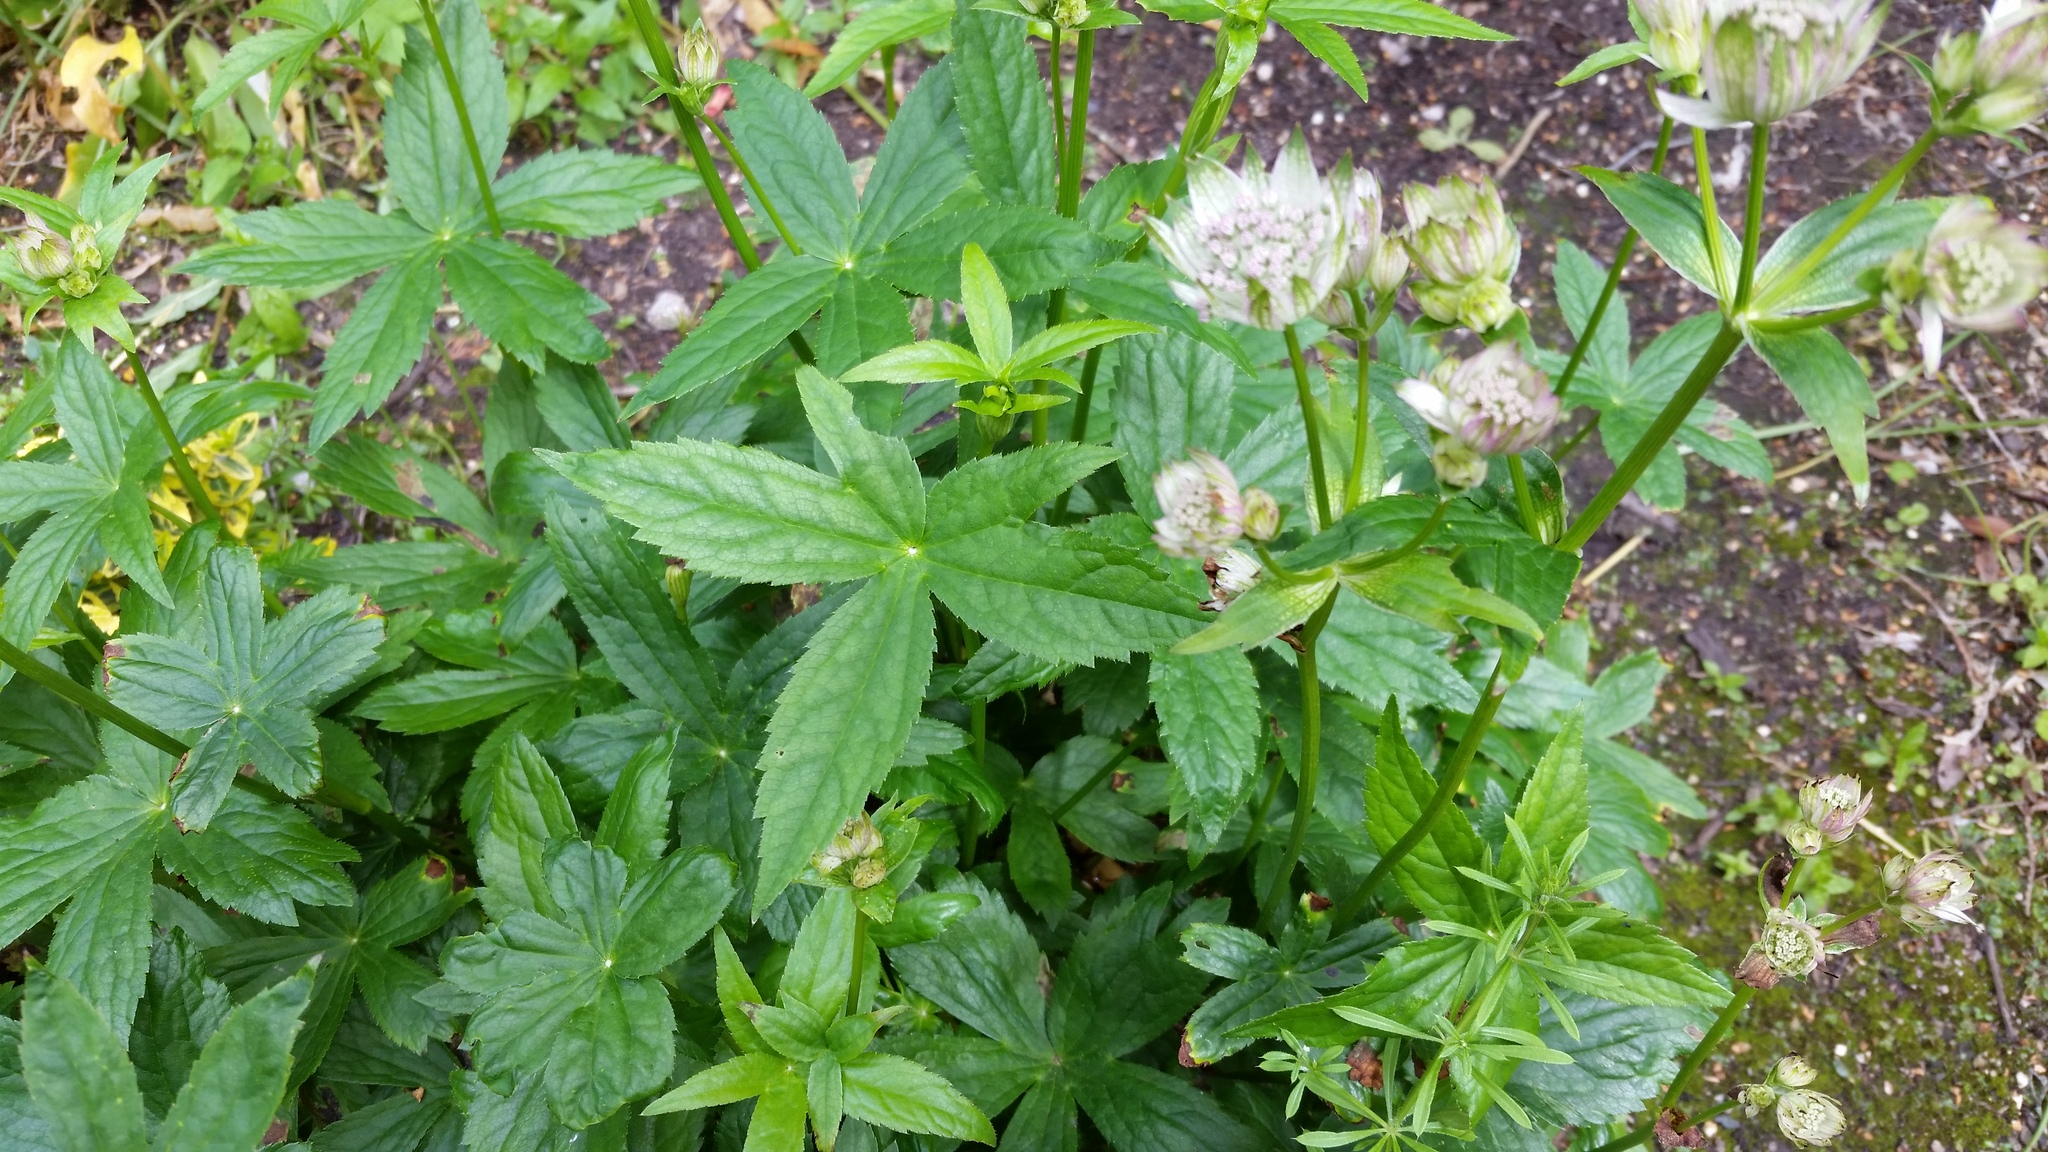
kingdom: Plantae
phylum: Tracheophyta
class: Magnoliopsida
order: Apiales
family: Apiaceae
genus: Astrantia
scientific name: Astrantia major
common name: Greater masterwort
